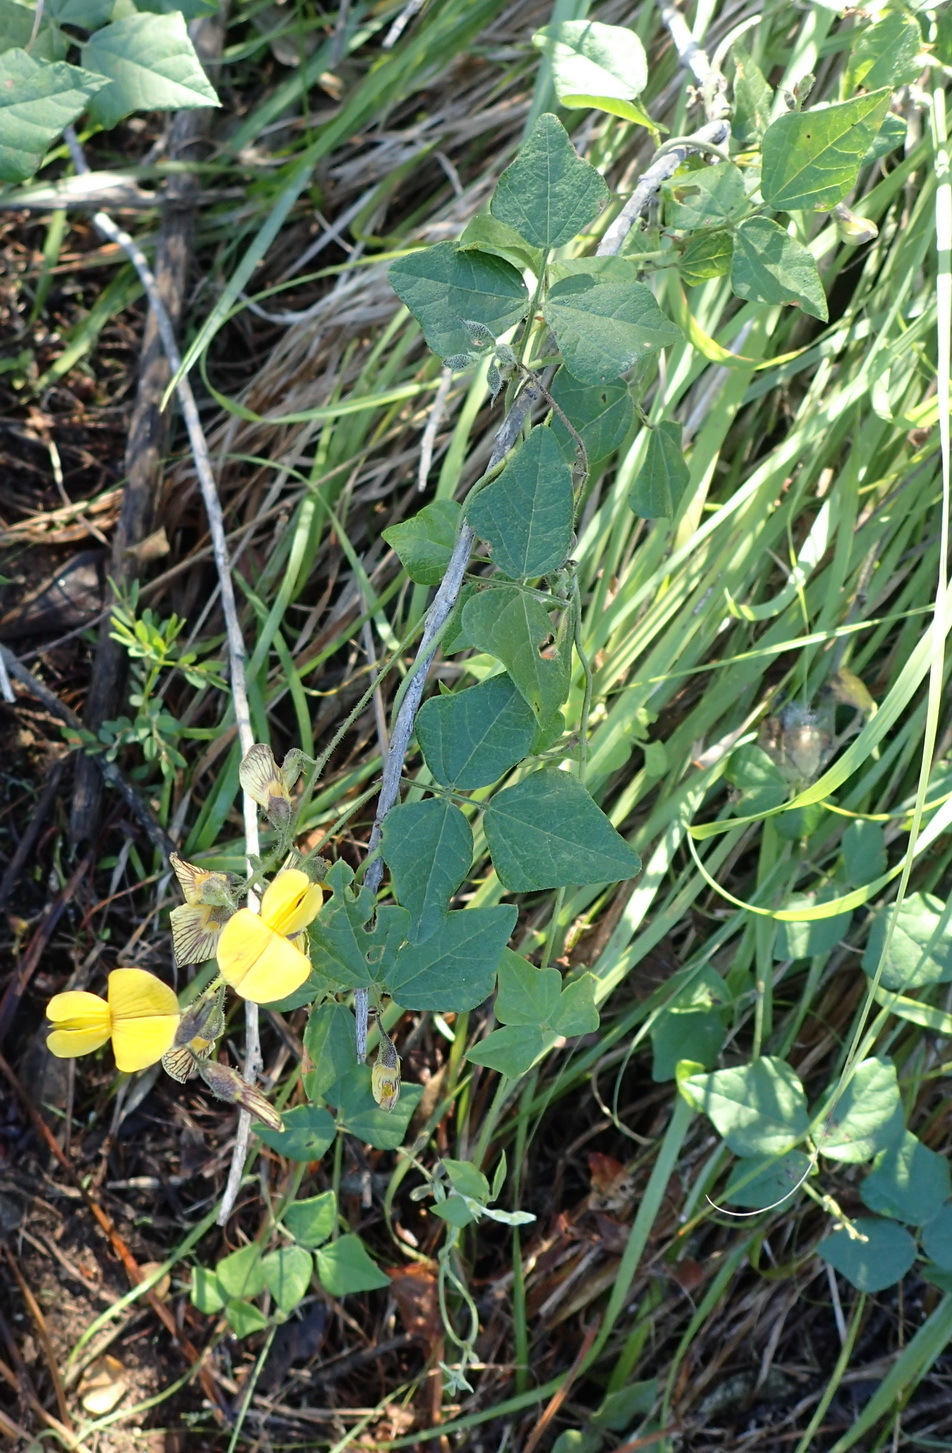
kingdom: Plantae
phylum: Tracheophyta
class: Magnoliopsida
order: Fabales
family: Fabaceae
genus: Rhynchosia
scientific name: Rhynchosia caribaea
